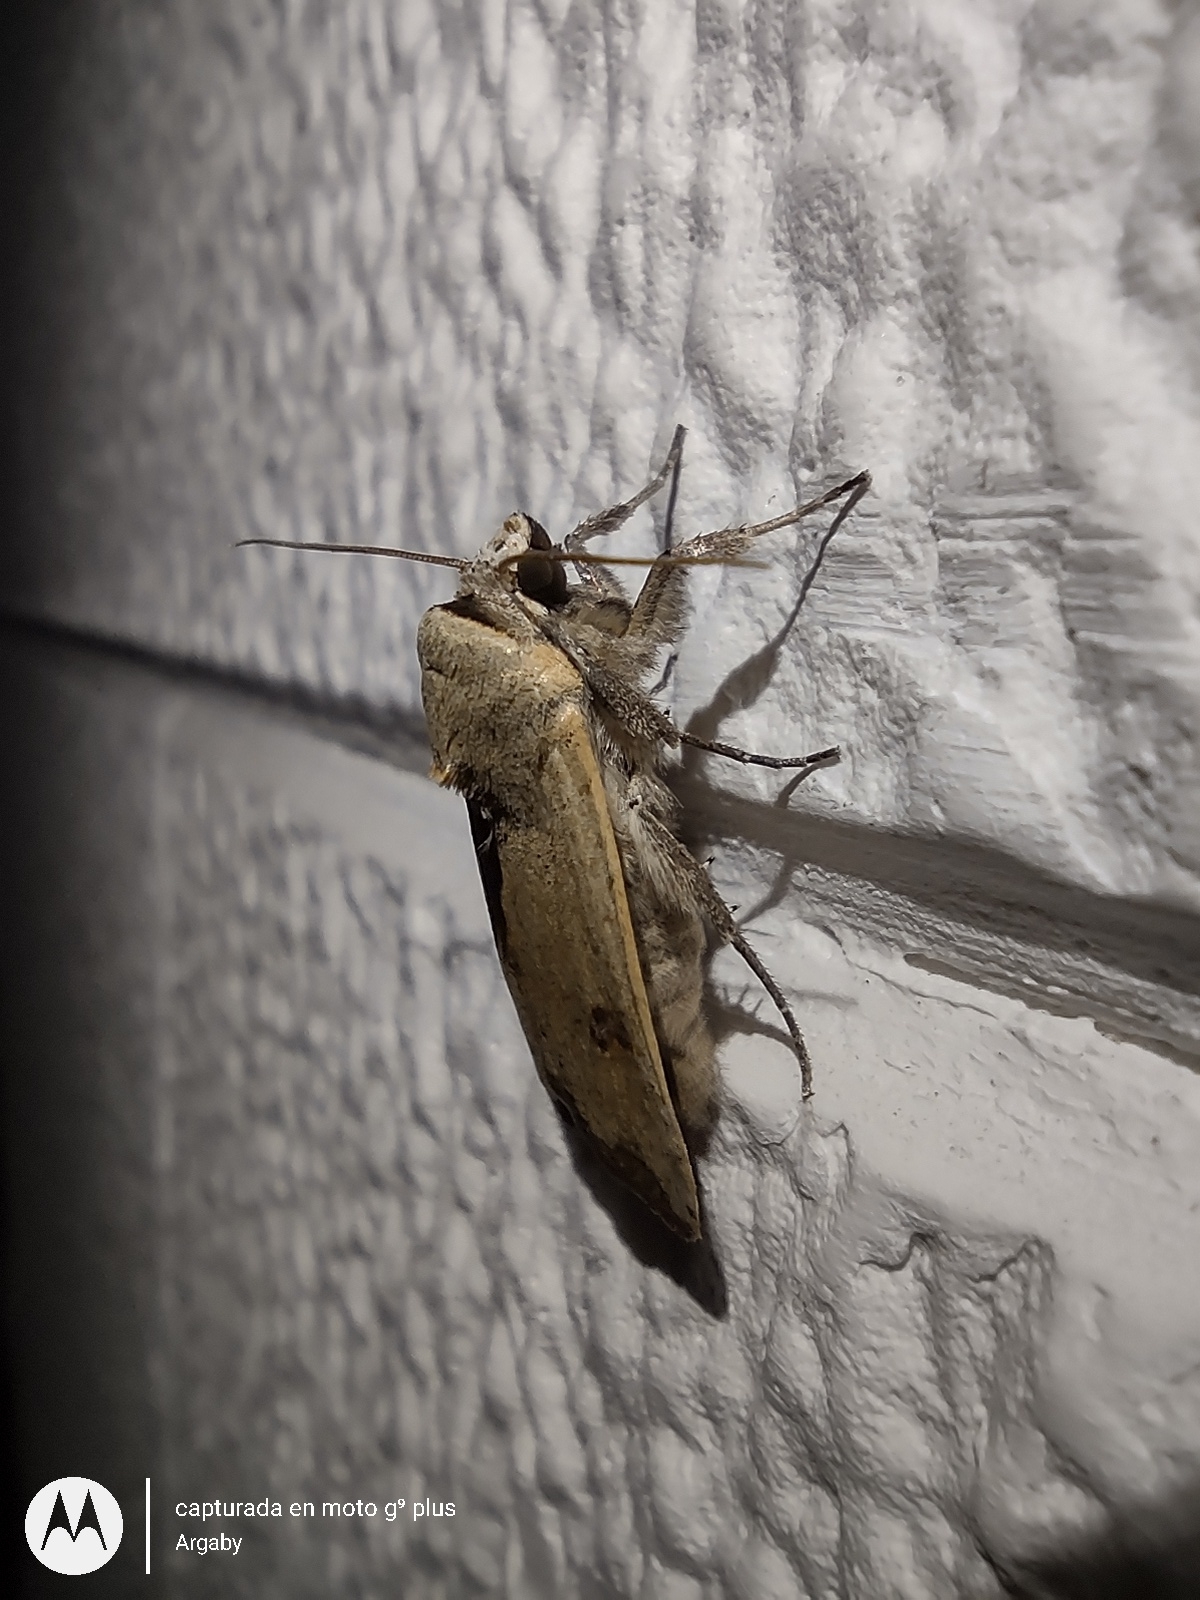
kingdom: Animalia
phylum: Arthropoda
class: Insecta
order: Lepidoptera
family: Noctuidae
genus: Anicla
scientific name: Anicla infecta
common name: Green cutworm
